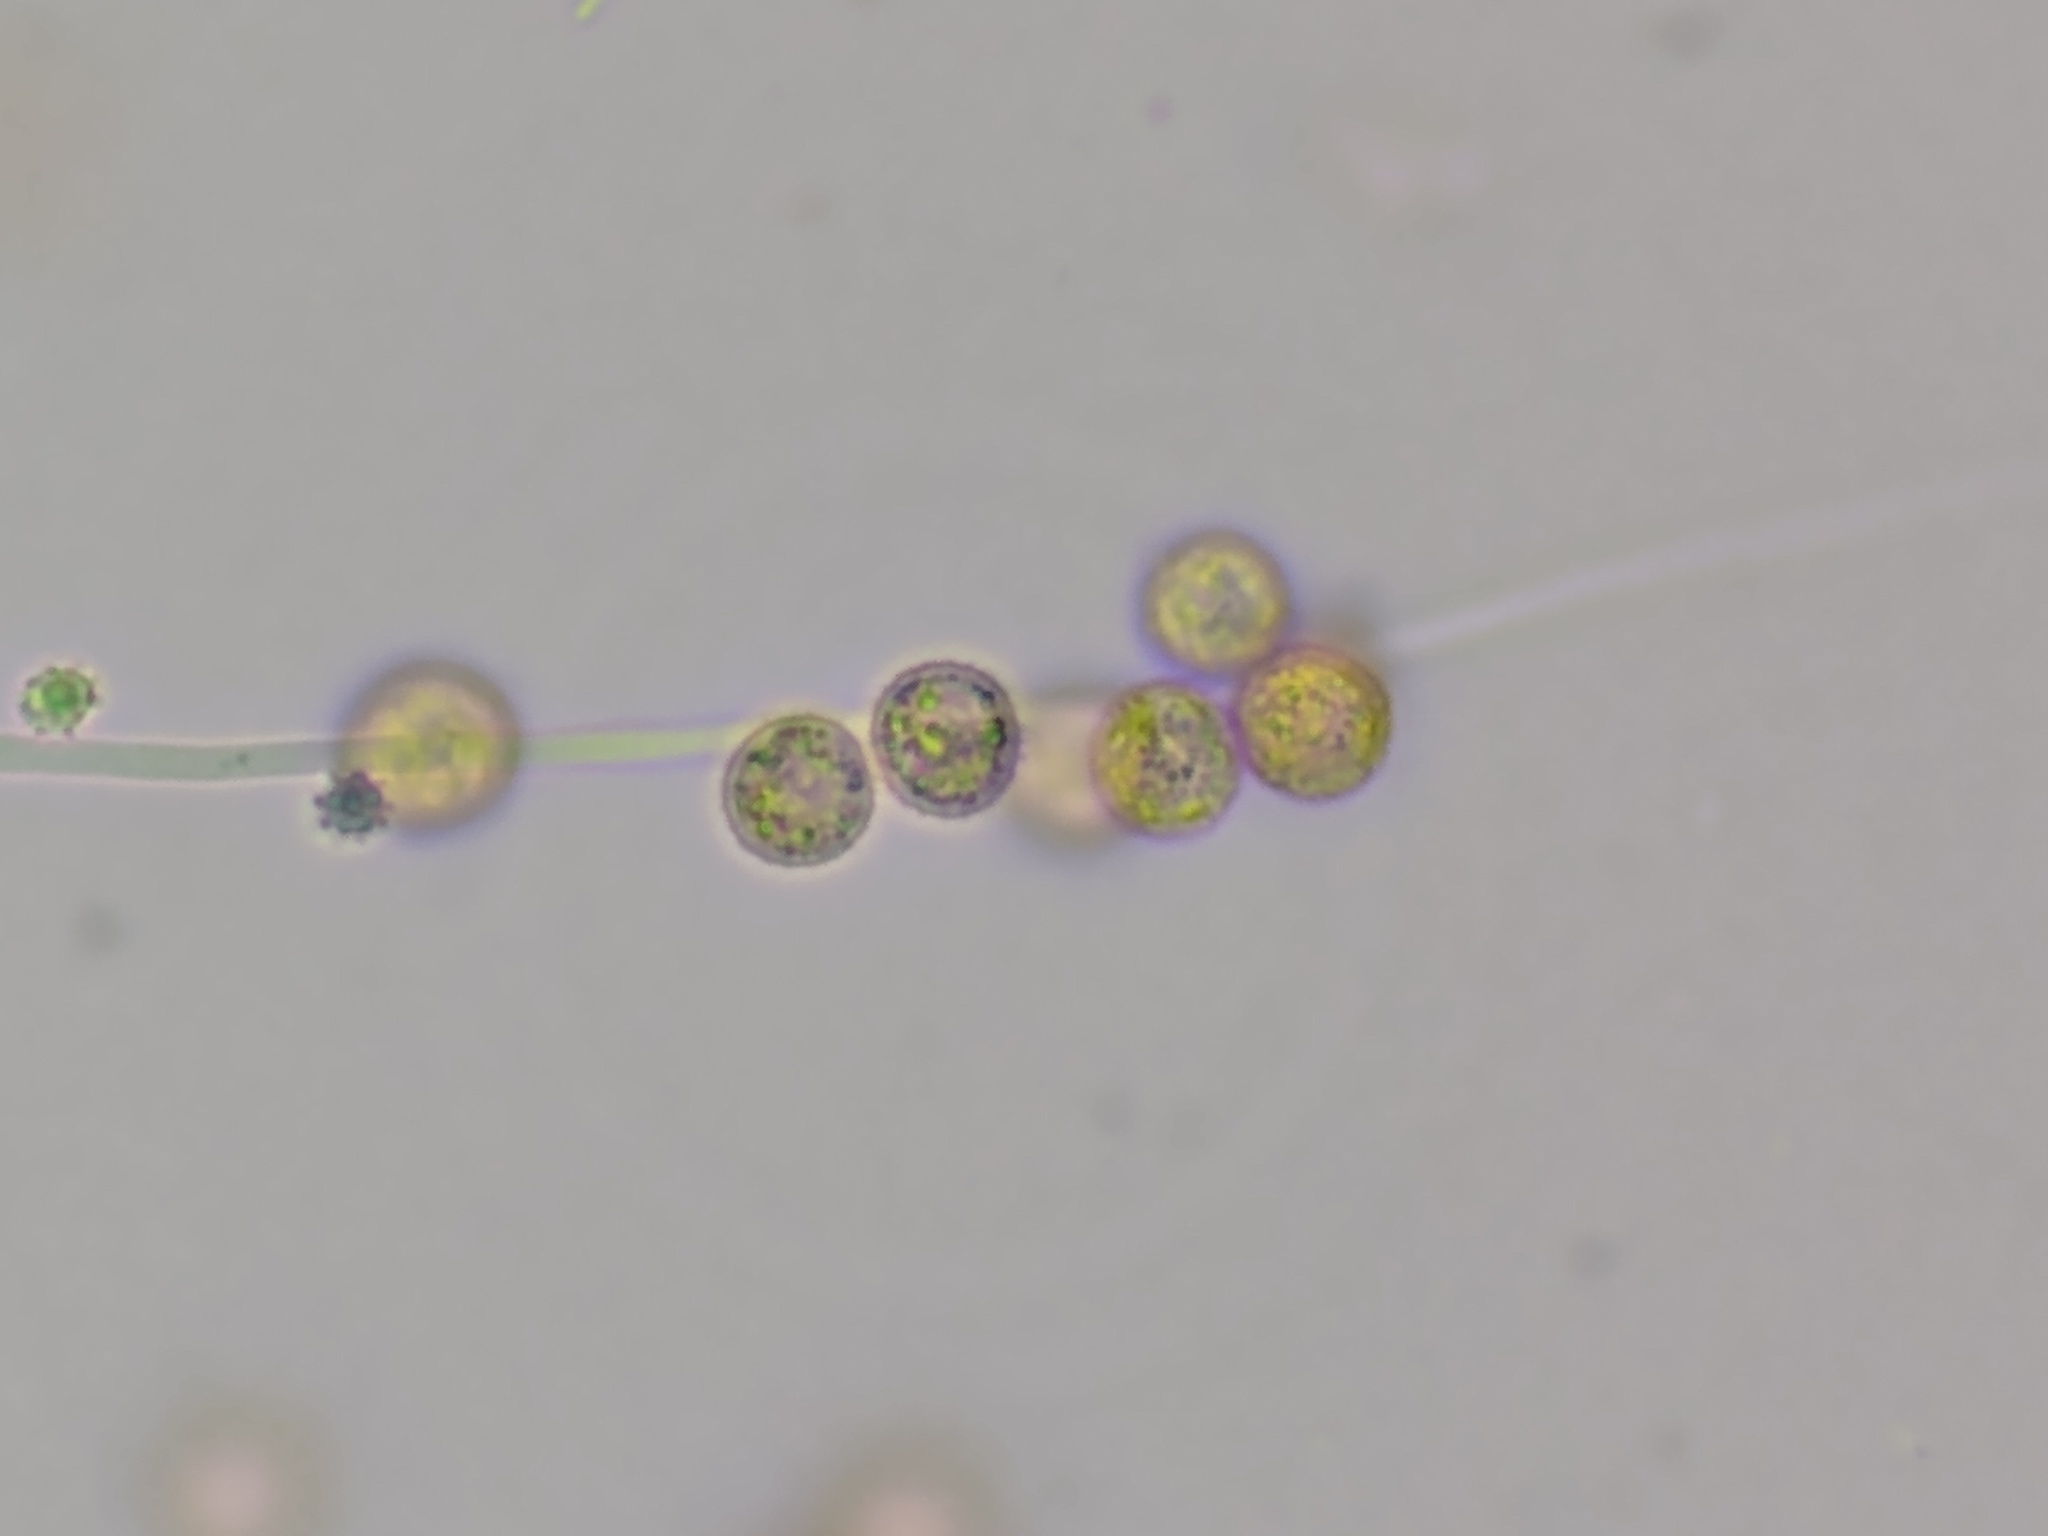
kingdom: Protozoa
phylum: Mycetozoa
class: Myxomycetes
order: Cribrariales
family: Cribrariaceae
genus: Cribraria
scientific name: Cribraria splendens
